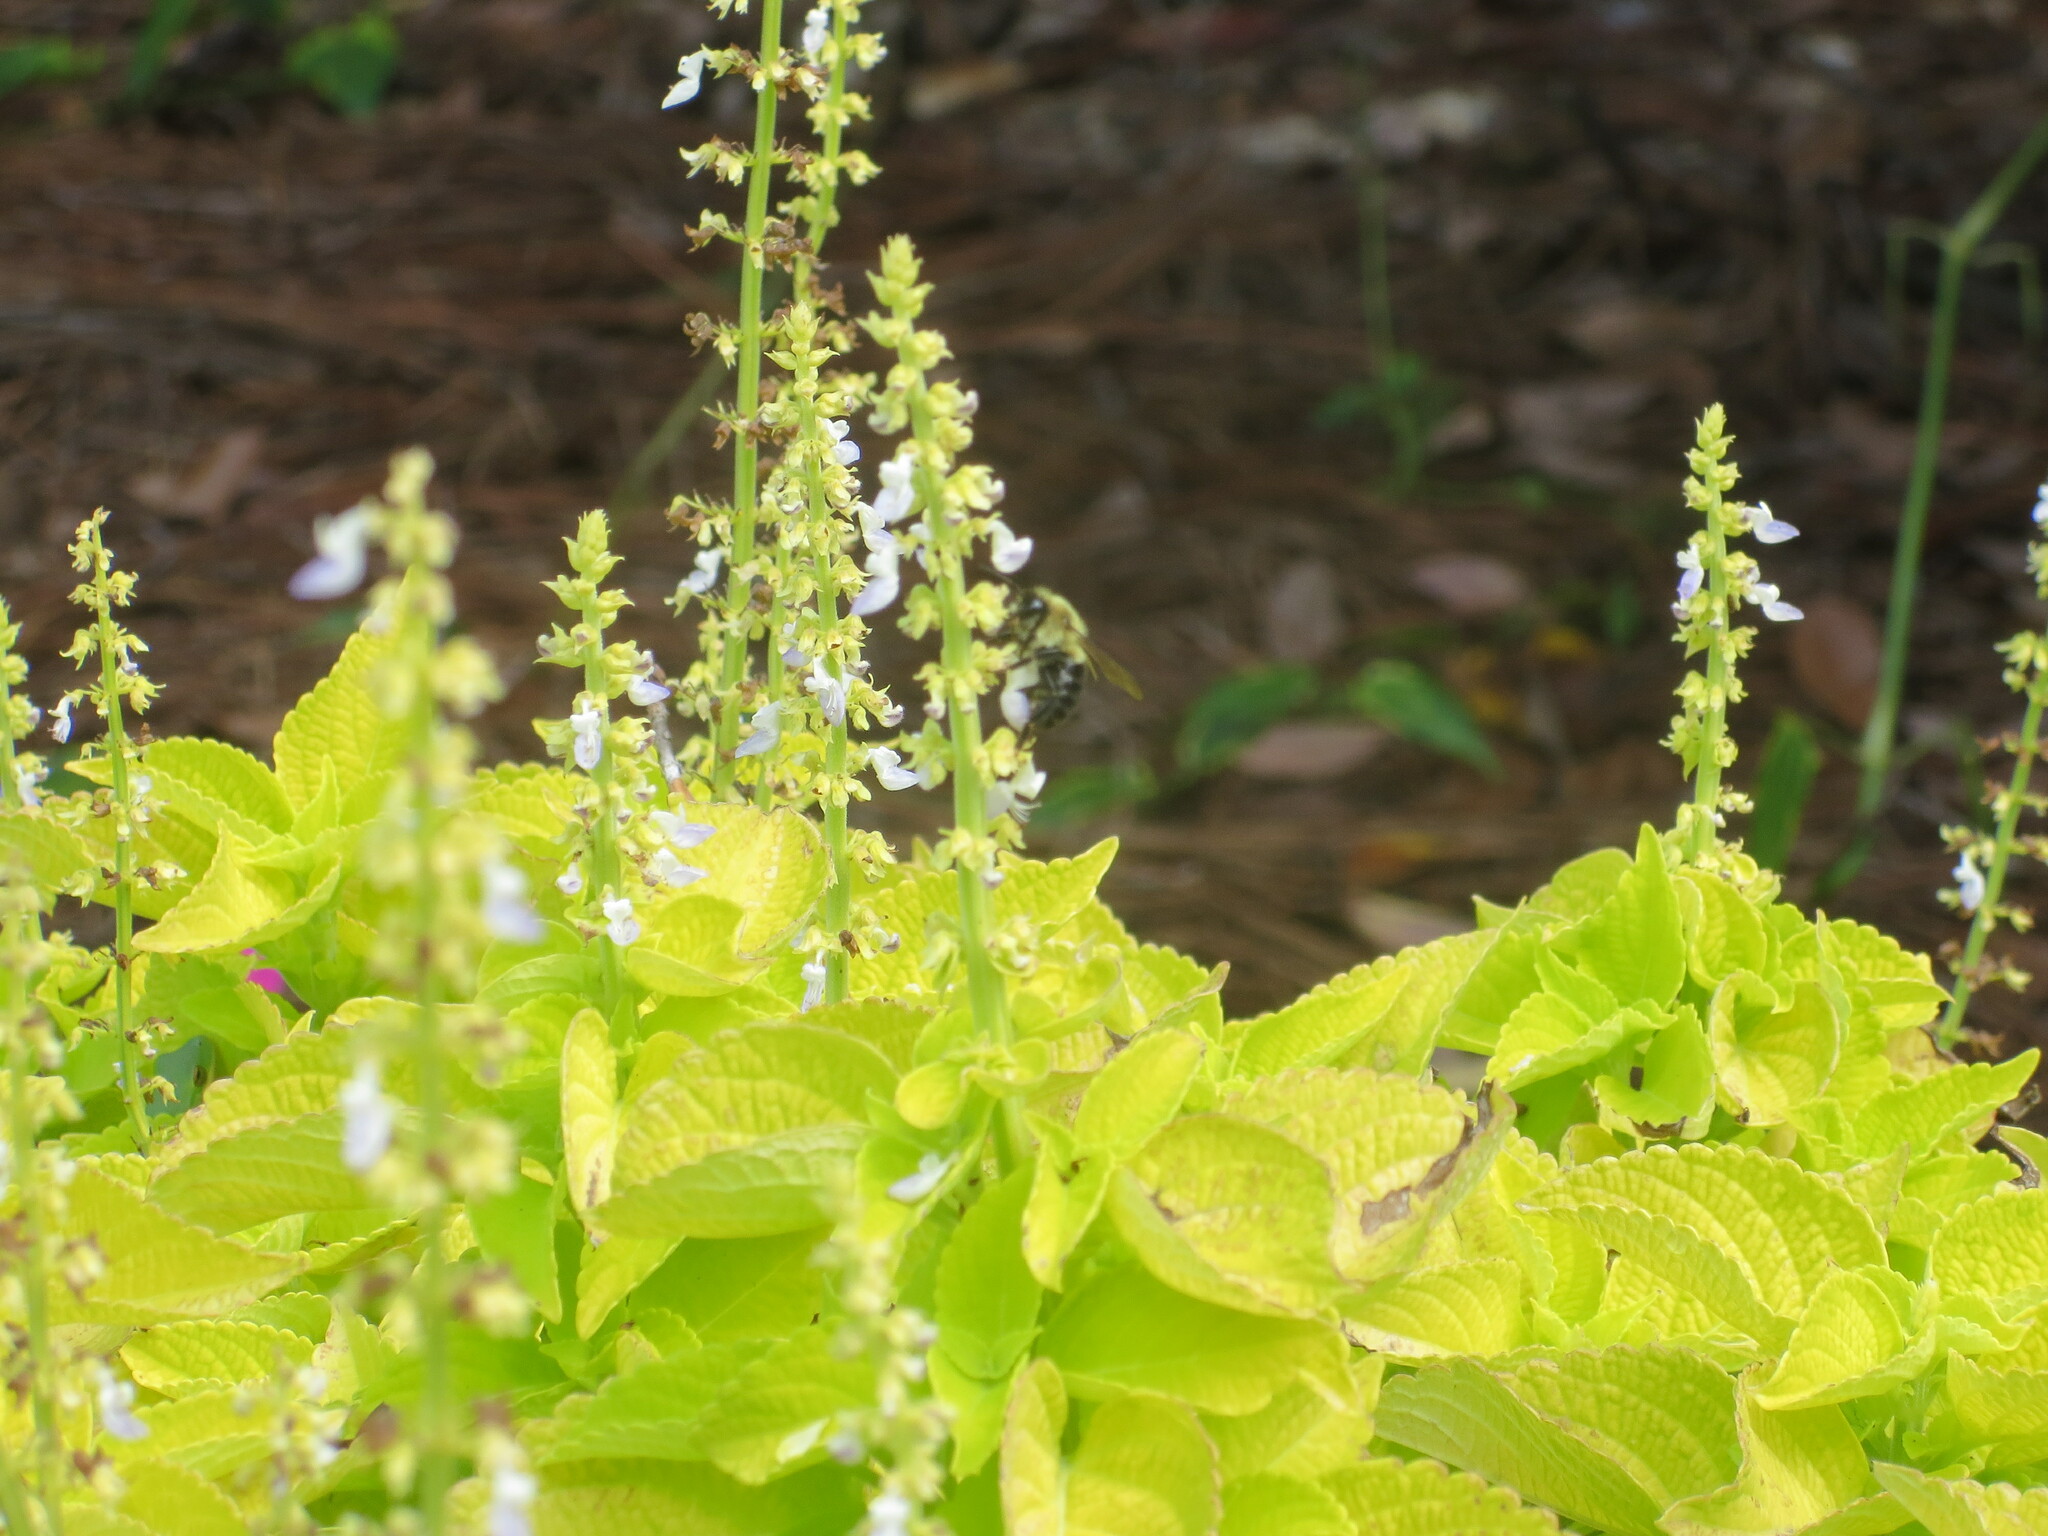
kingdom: Animalia
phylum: Arthropoda
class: Insecta
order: Hymenoptera
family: Apidae
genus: Bombus
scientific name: Bombus impatiens
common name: Common eastern bumble bee
